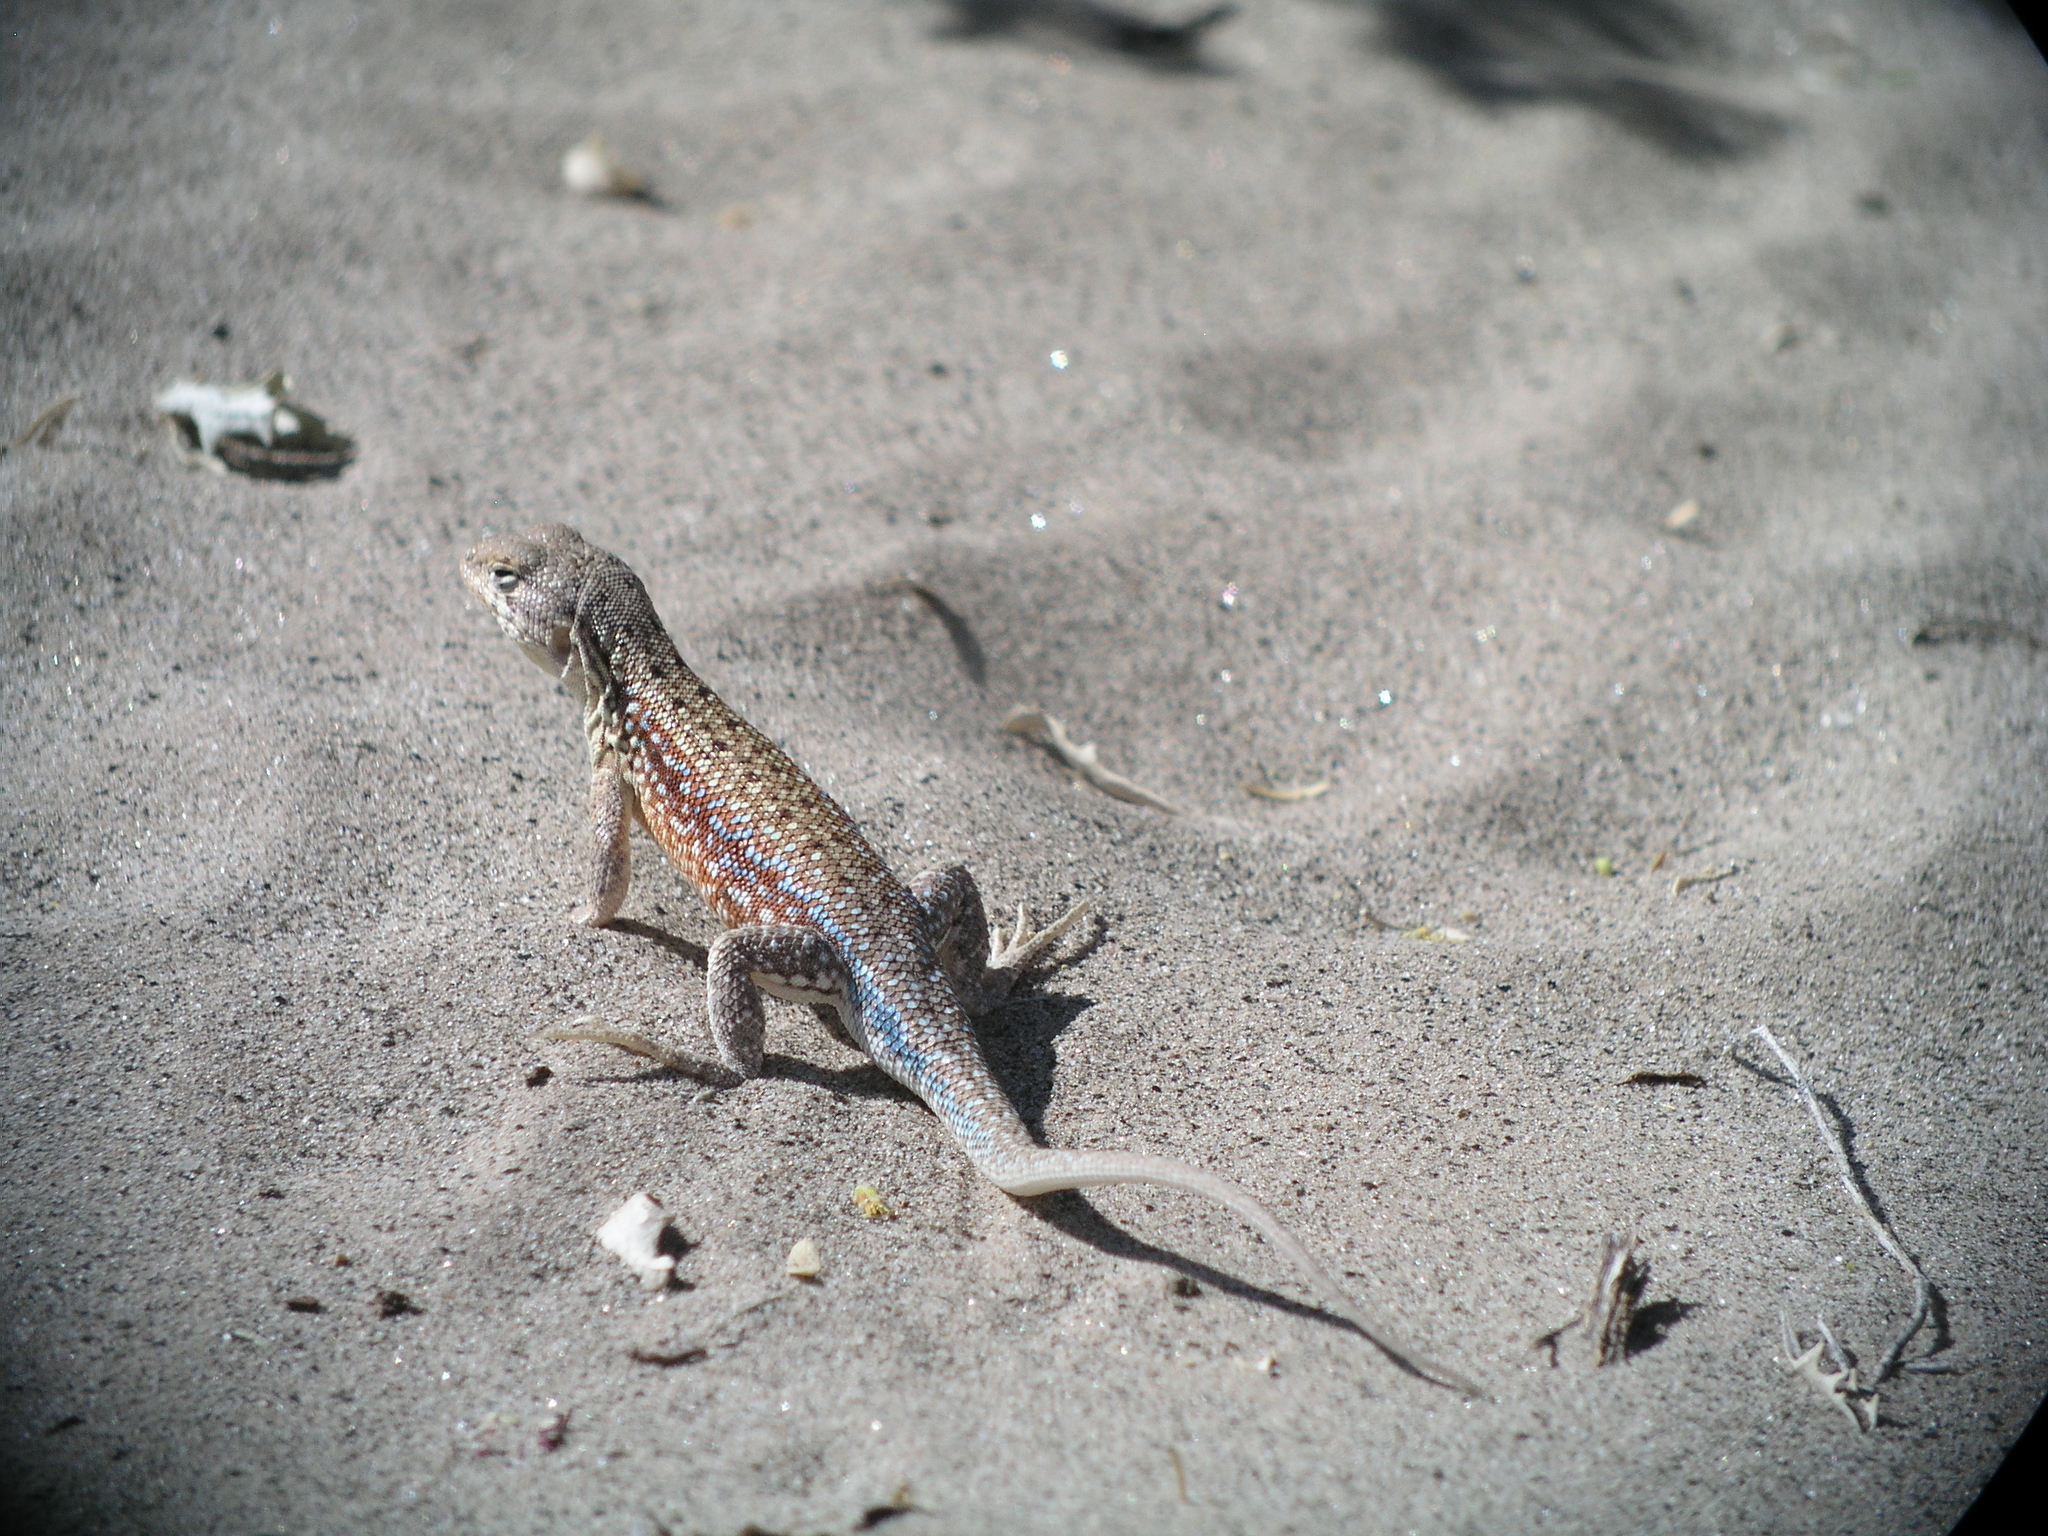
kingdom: Animalia
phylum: Chordata
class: Squamata
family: Liolaemidae
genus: Liolaemus
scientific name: Liolaemus quilmes
